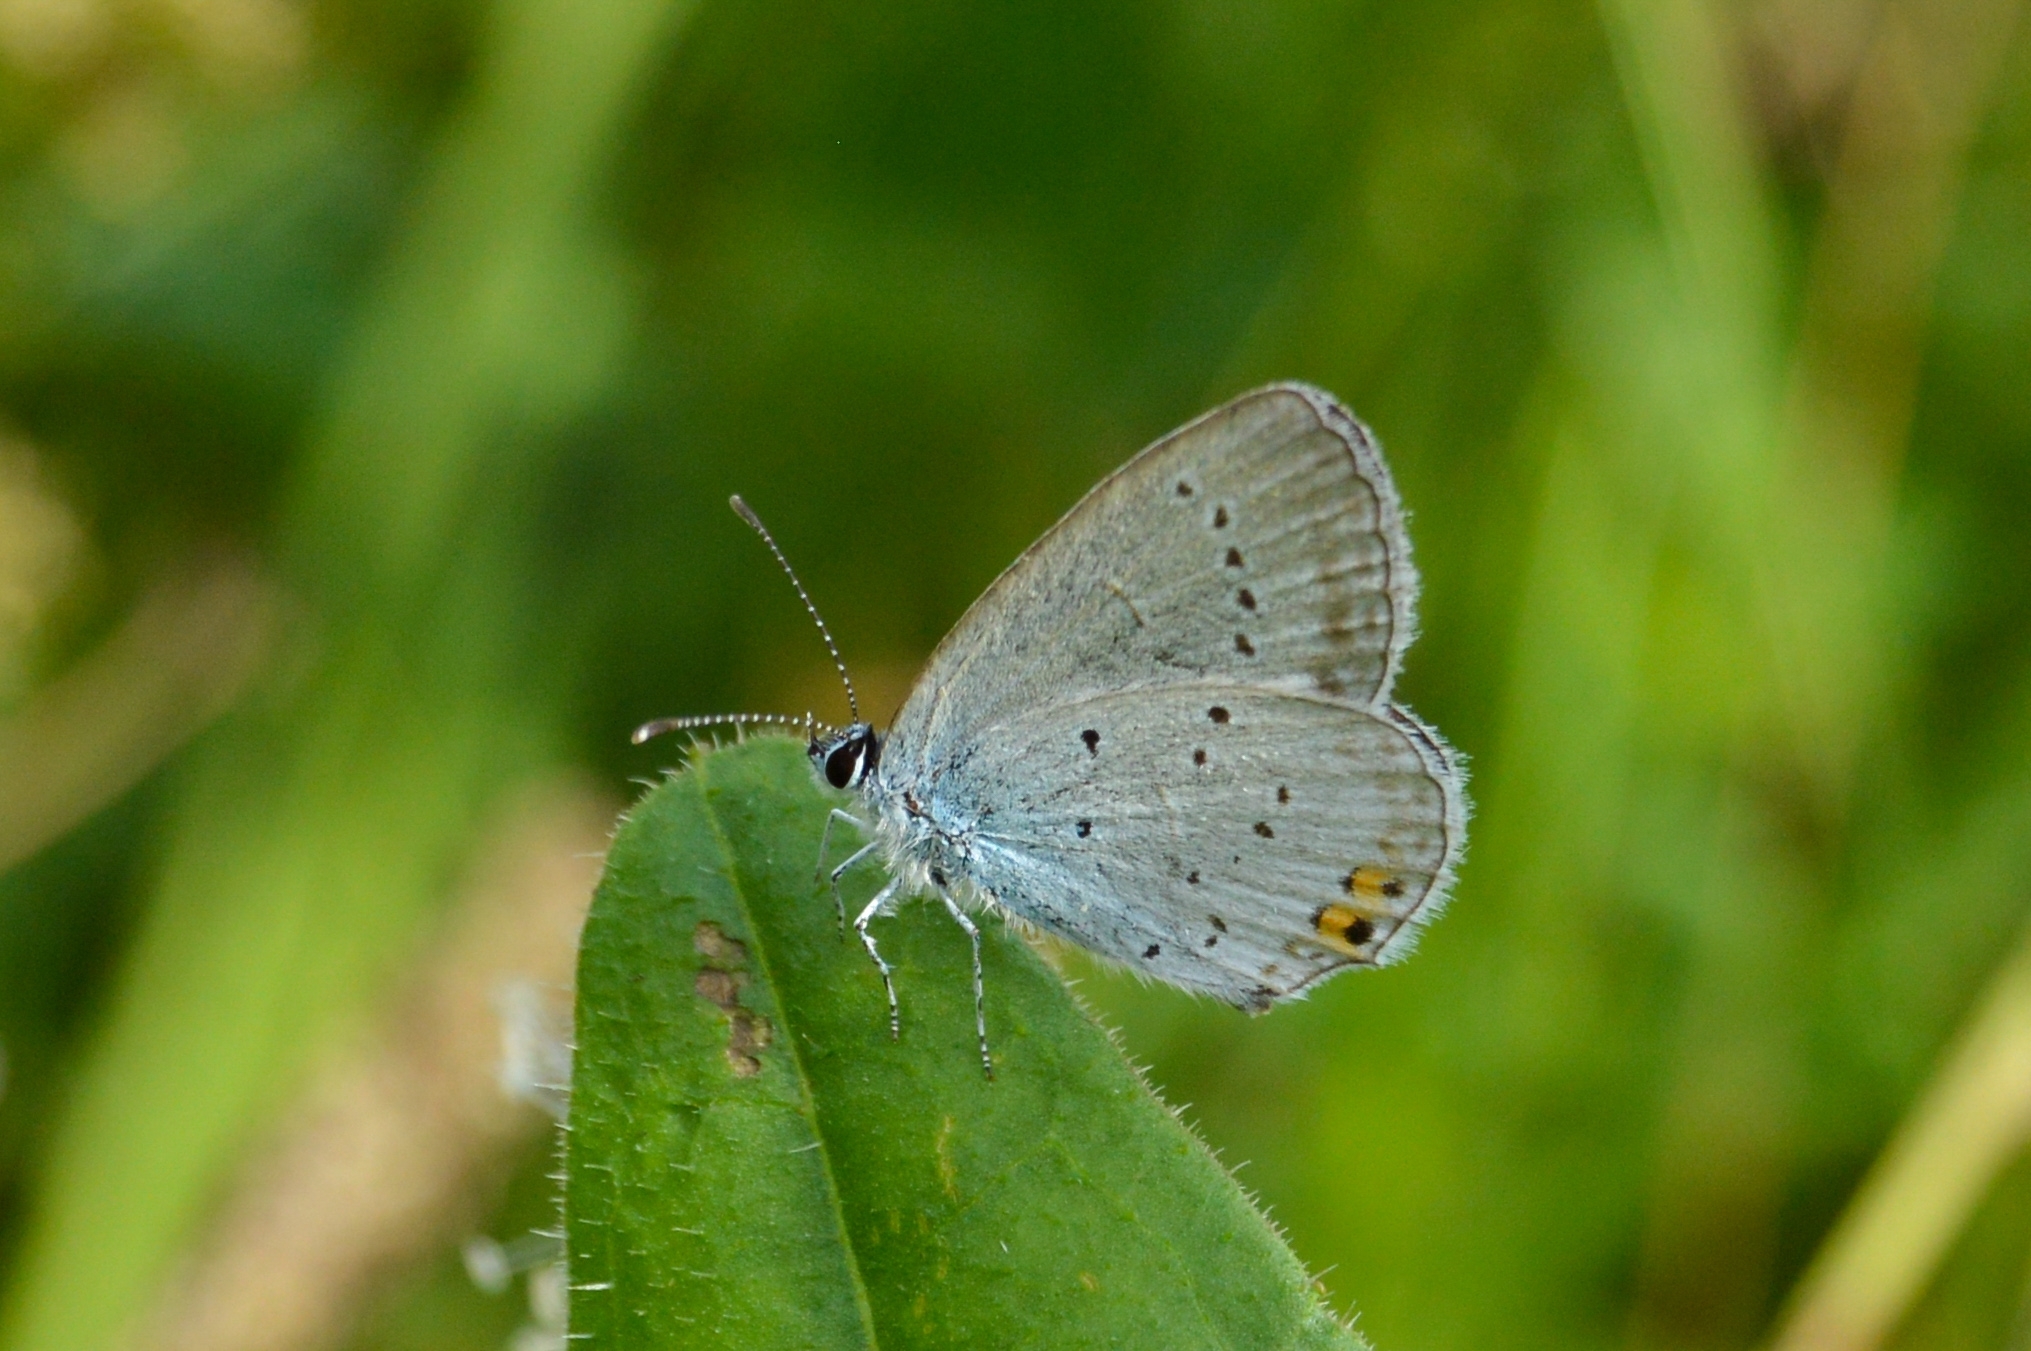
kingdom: Animalia
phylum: Arthropoda
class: Insecta
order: Lepidoptera
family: Lycaenidae
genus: Elkalyce
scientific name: Elkalyce argiades
